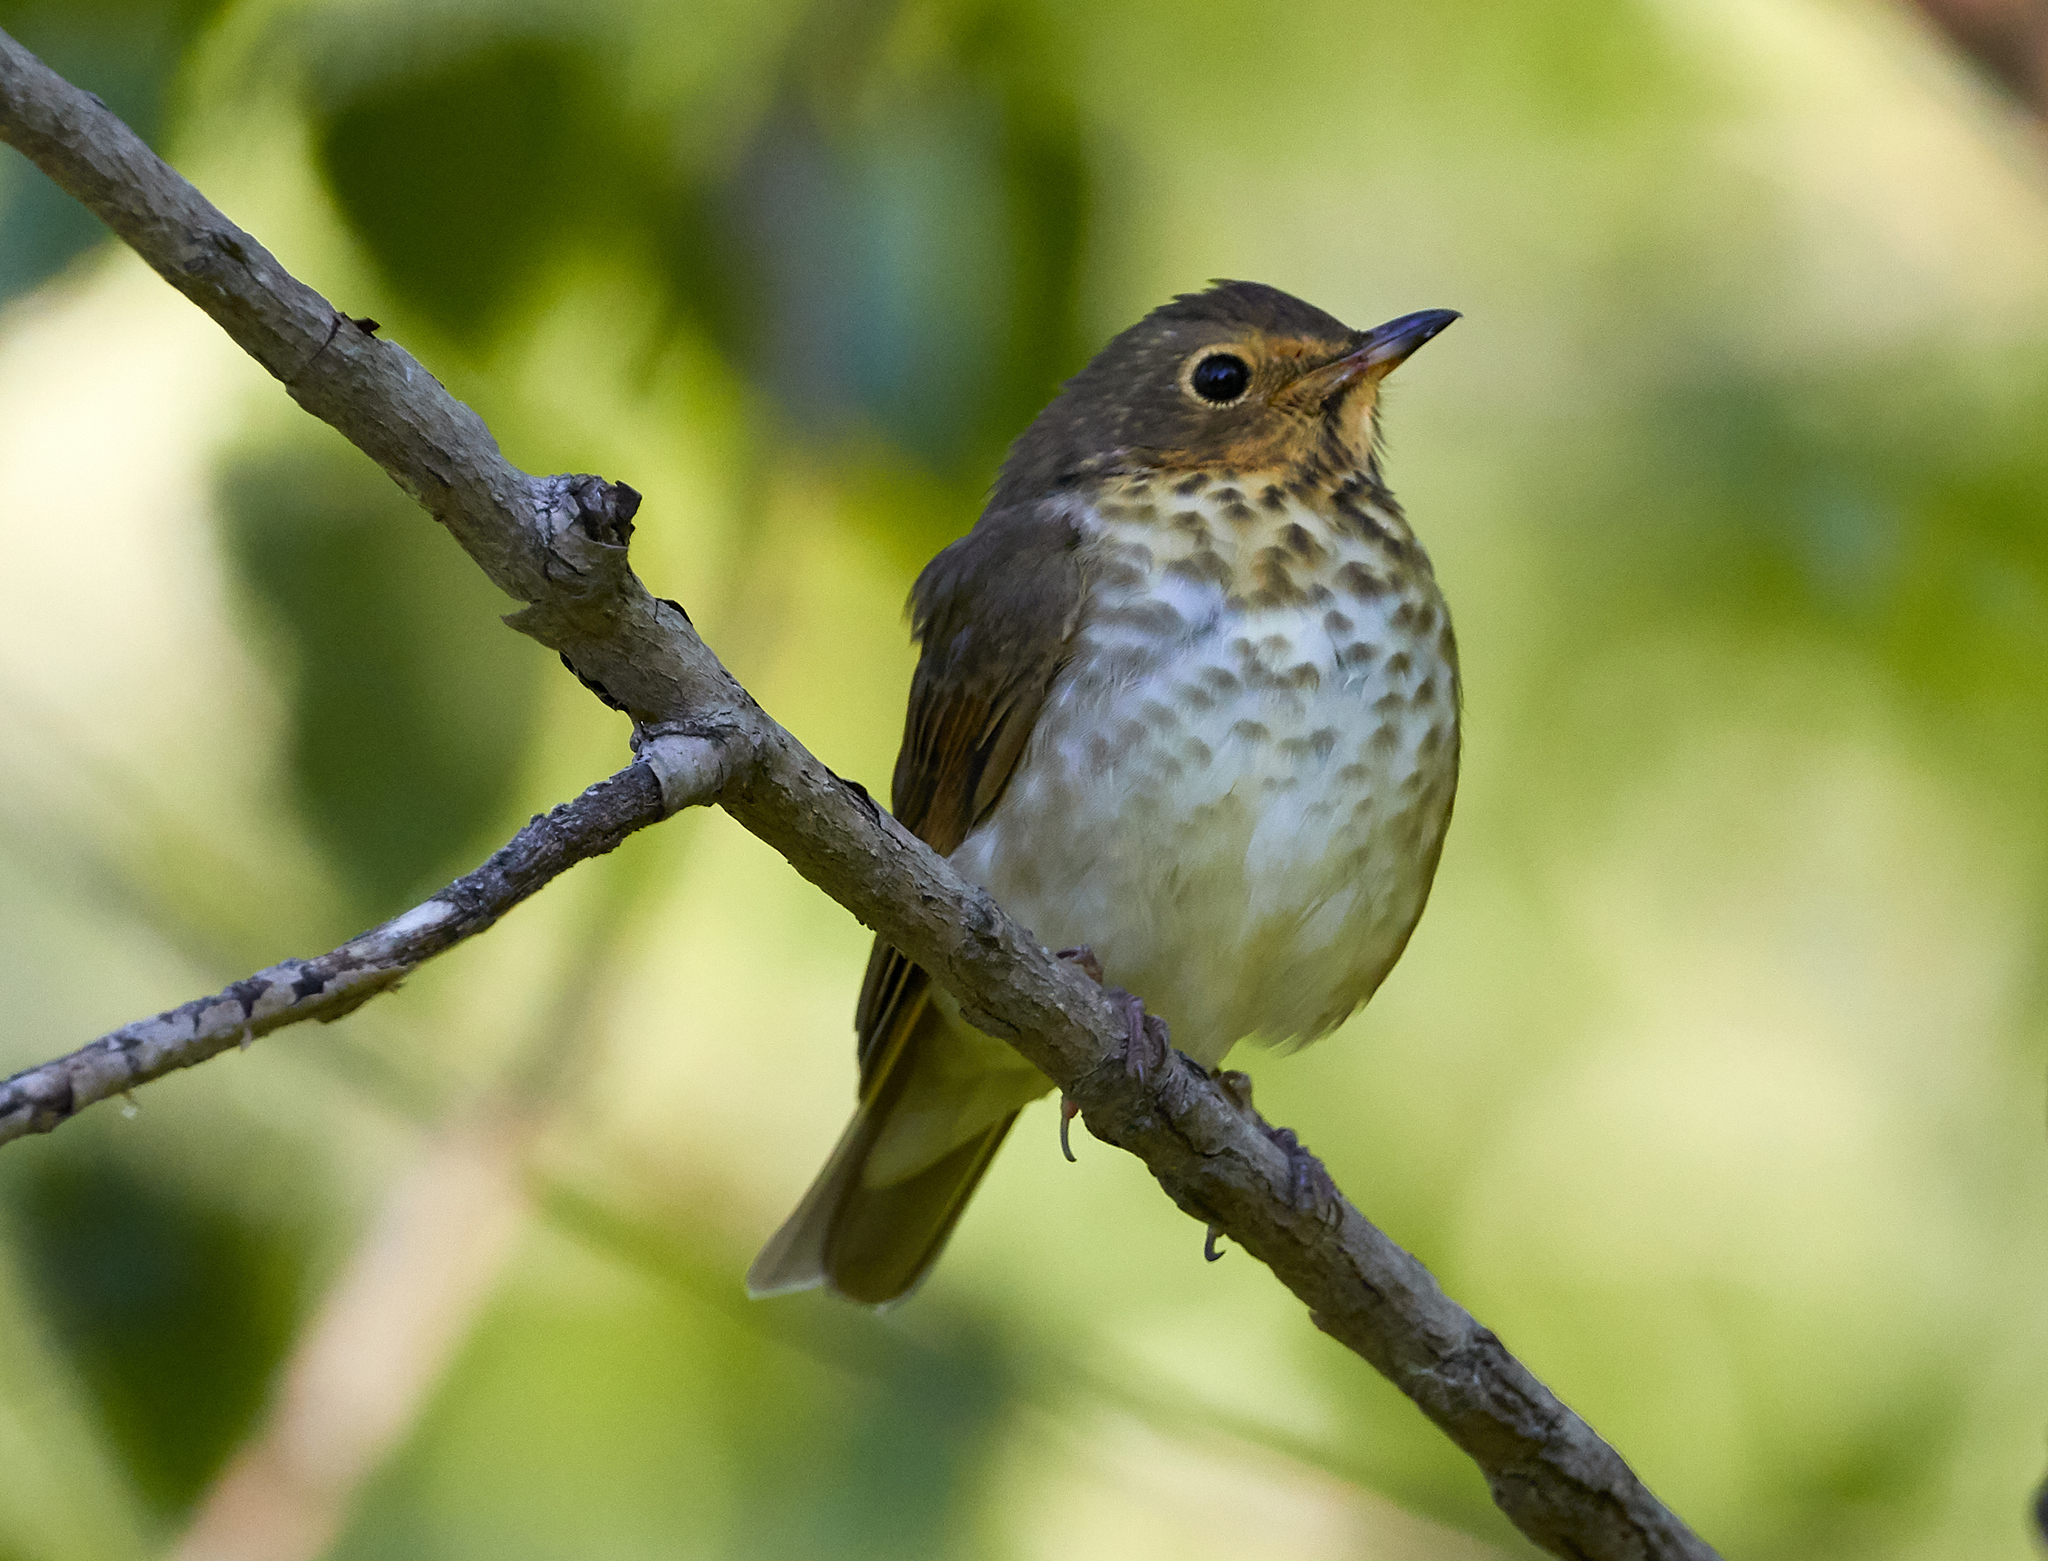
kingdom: Animalia
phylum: Chordata
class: Aves
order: Passeriformes
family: Turdidae
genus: Catharus
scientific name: Catharus ustulatus
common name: Swainson's thrush
